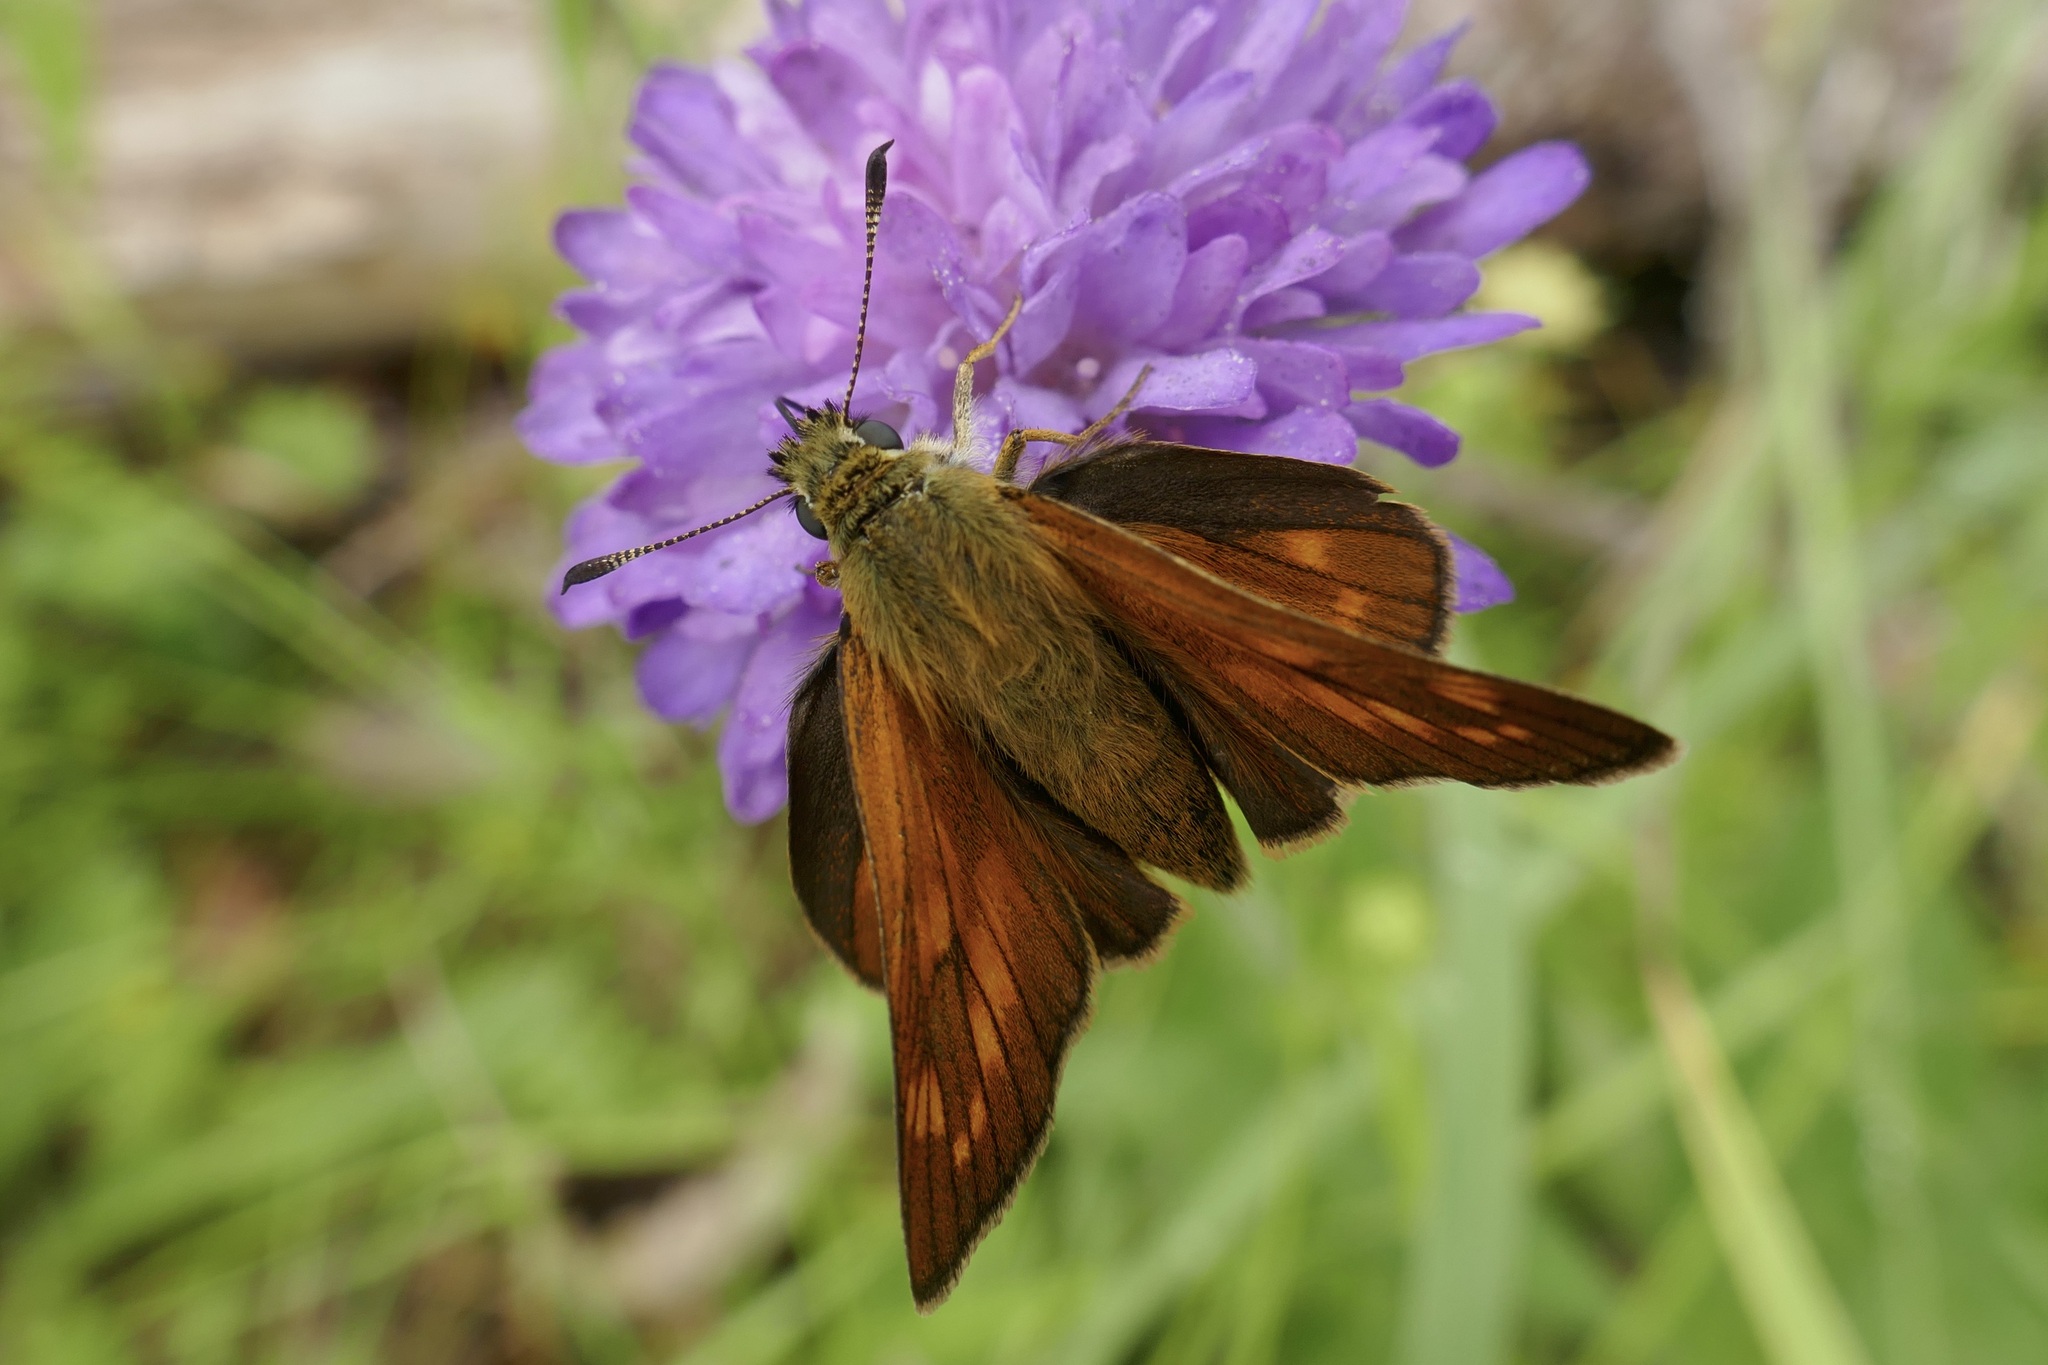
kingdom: Animalia
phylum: Arthropoda
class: Insecta
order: Lepidoptera
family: Hesperiidae
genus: Ochlodes
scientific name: Ochlodes venata
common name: Large skipper
